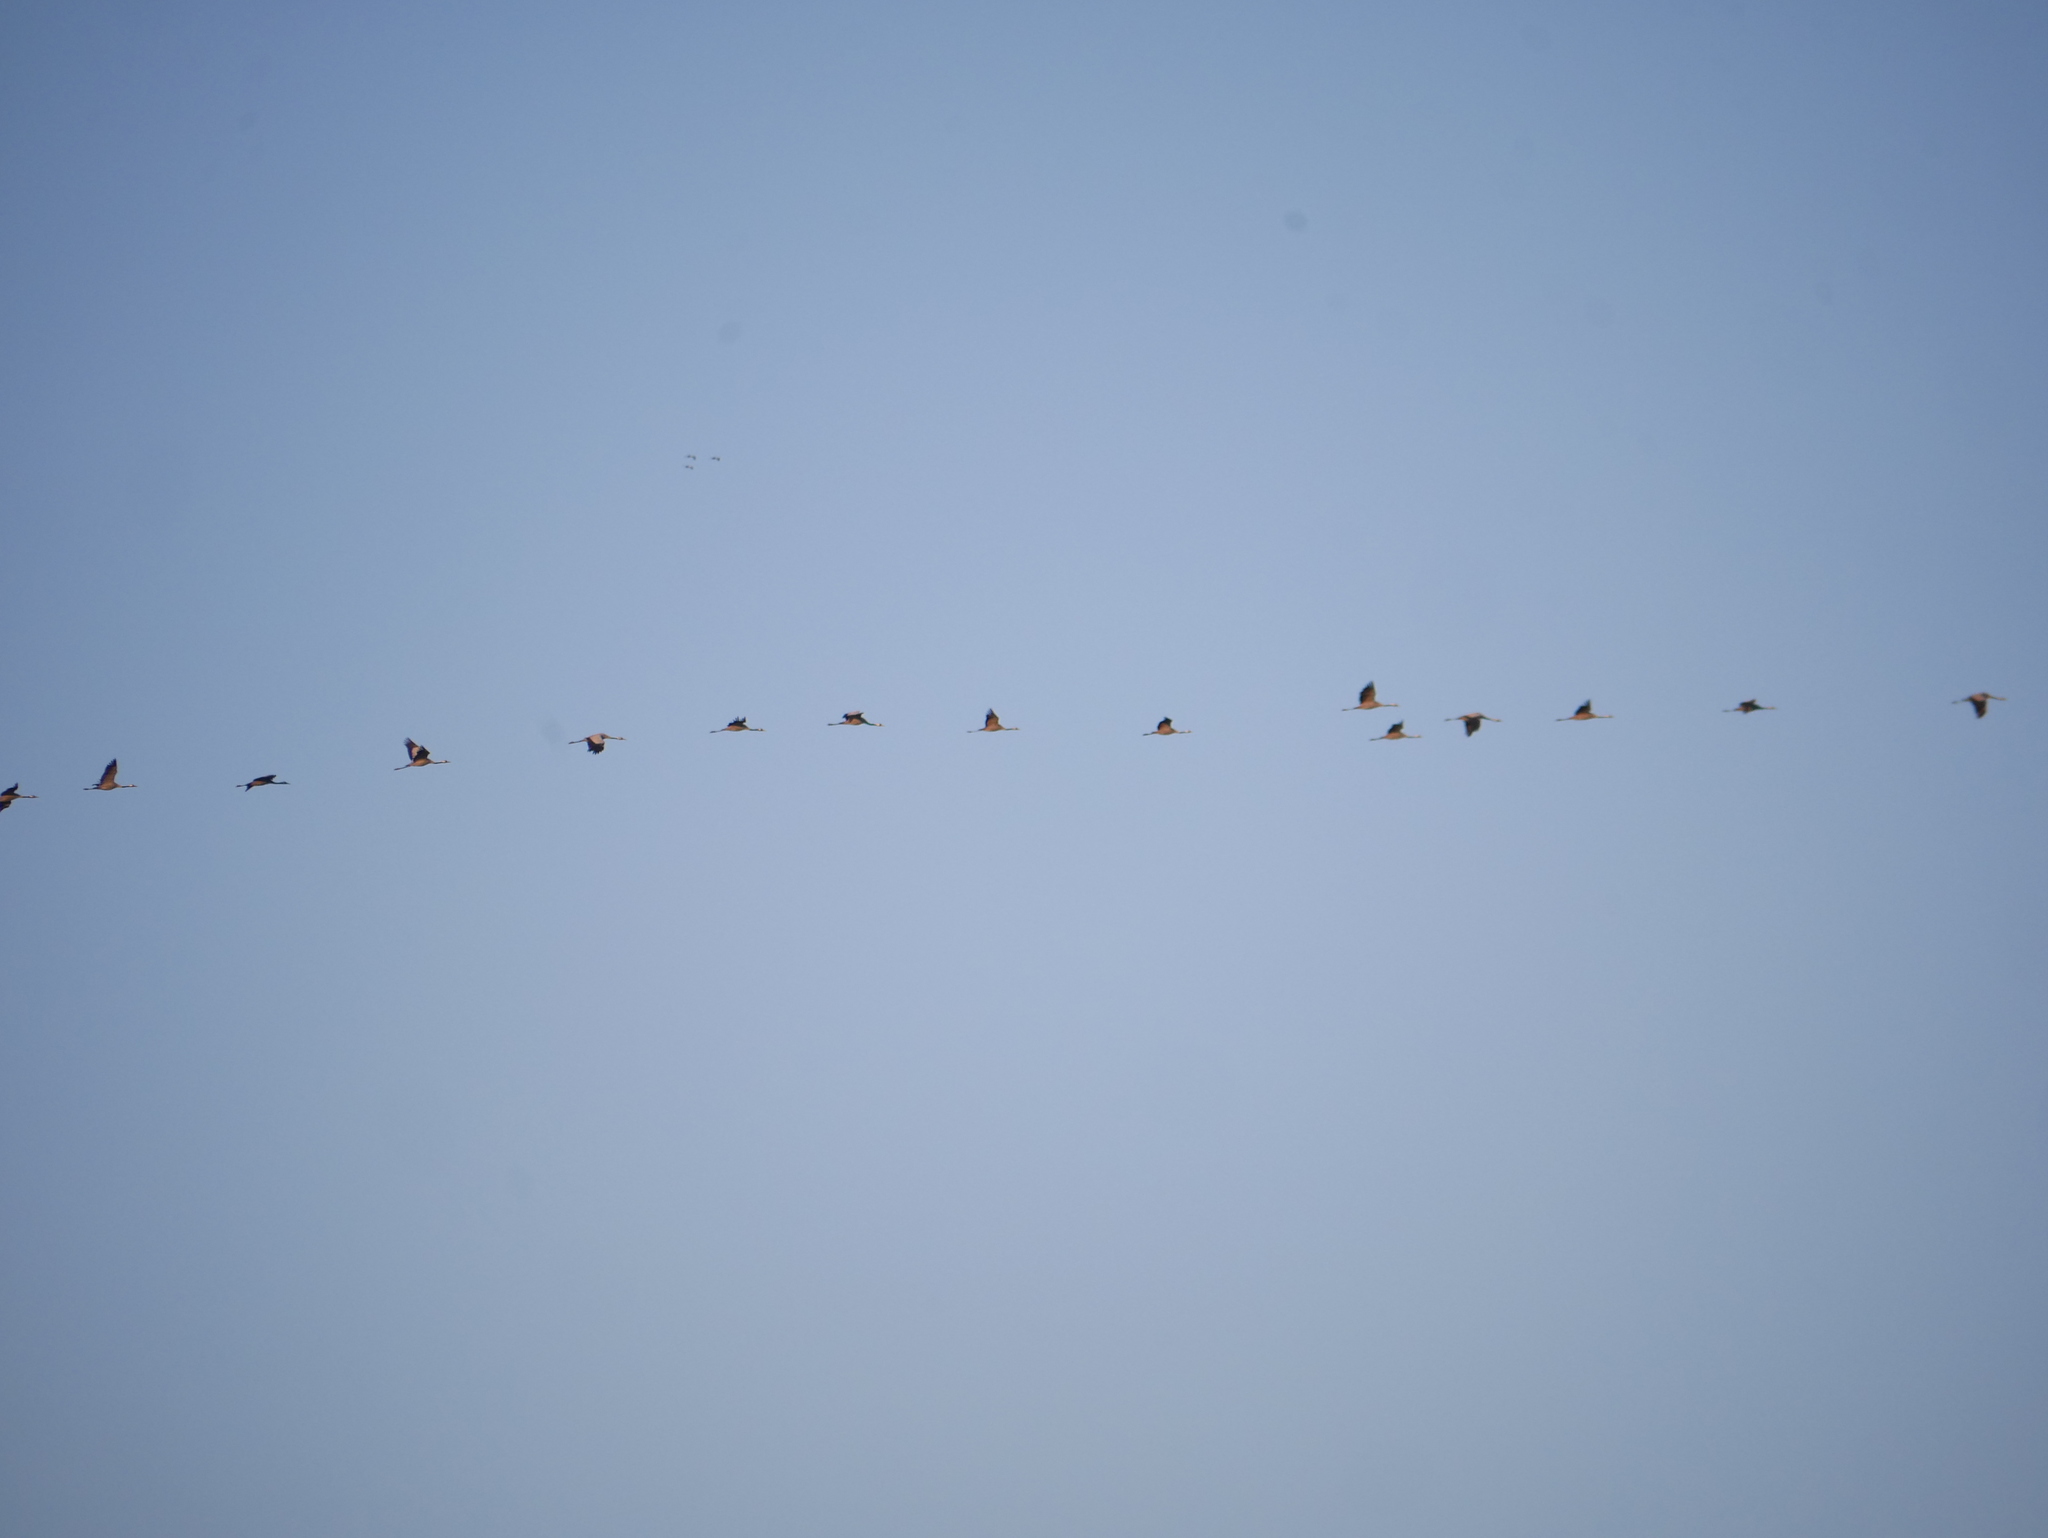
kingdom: Animalia
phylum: Chordata
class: Aves
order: Gruiformes
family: Gruidae
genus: Grus
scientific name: Grus grus
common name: Common crane
